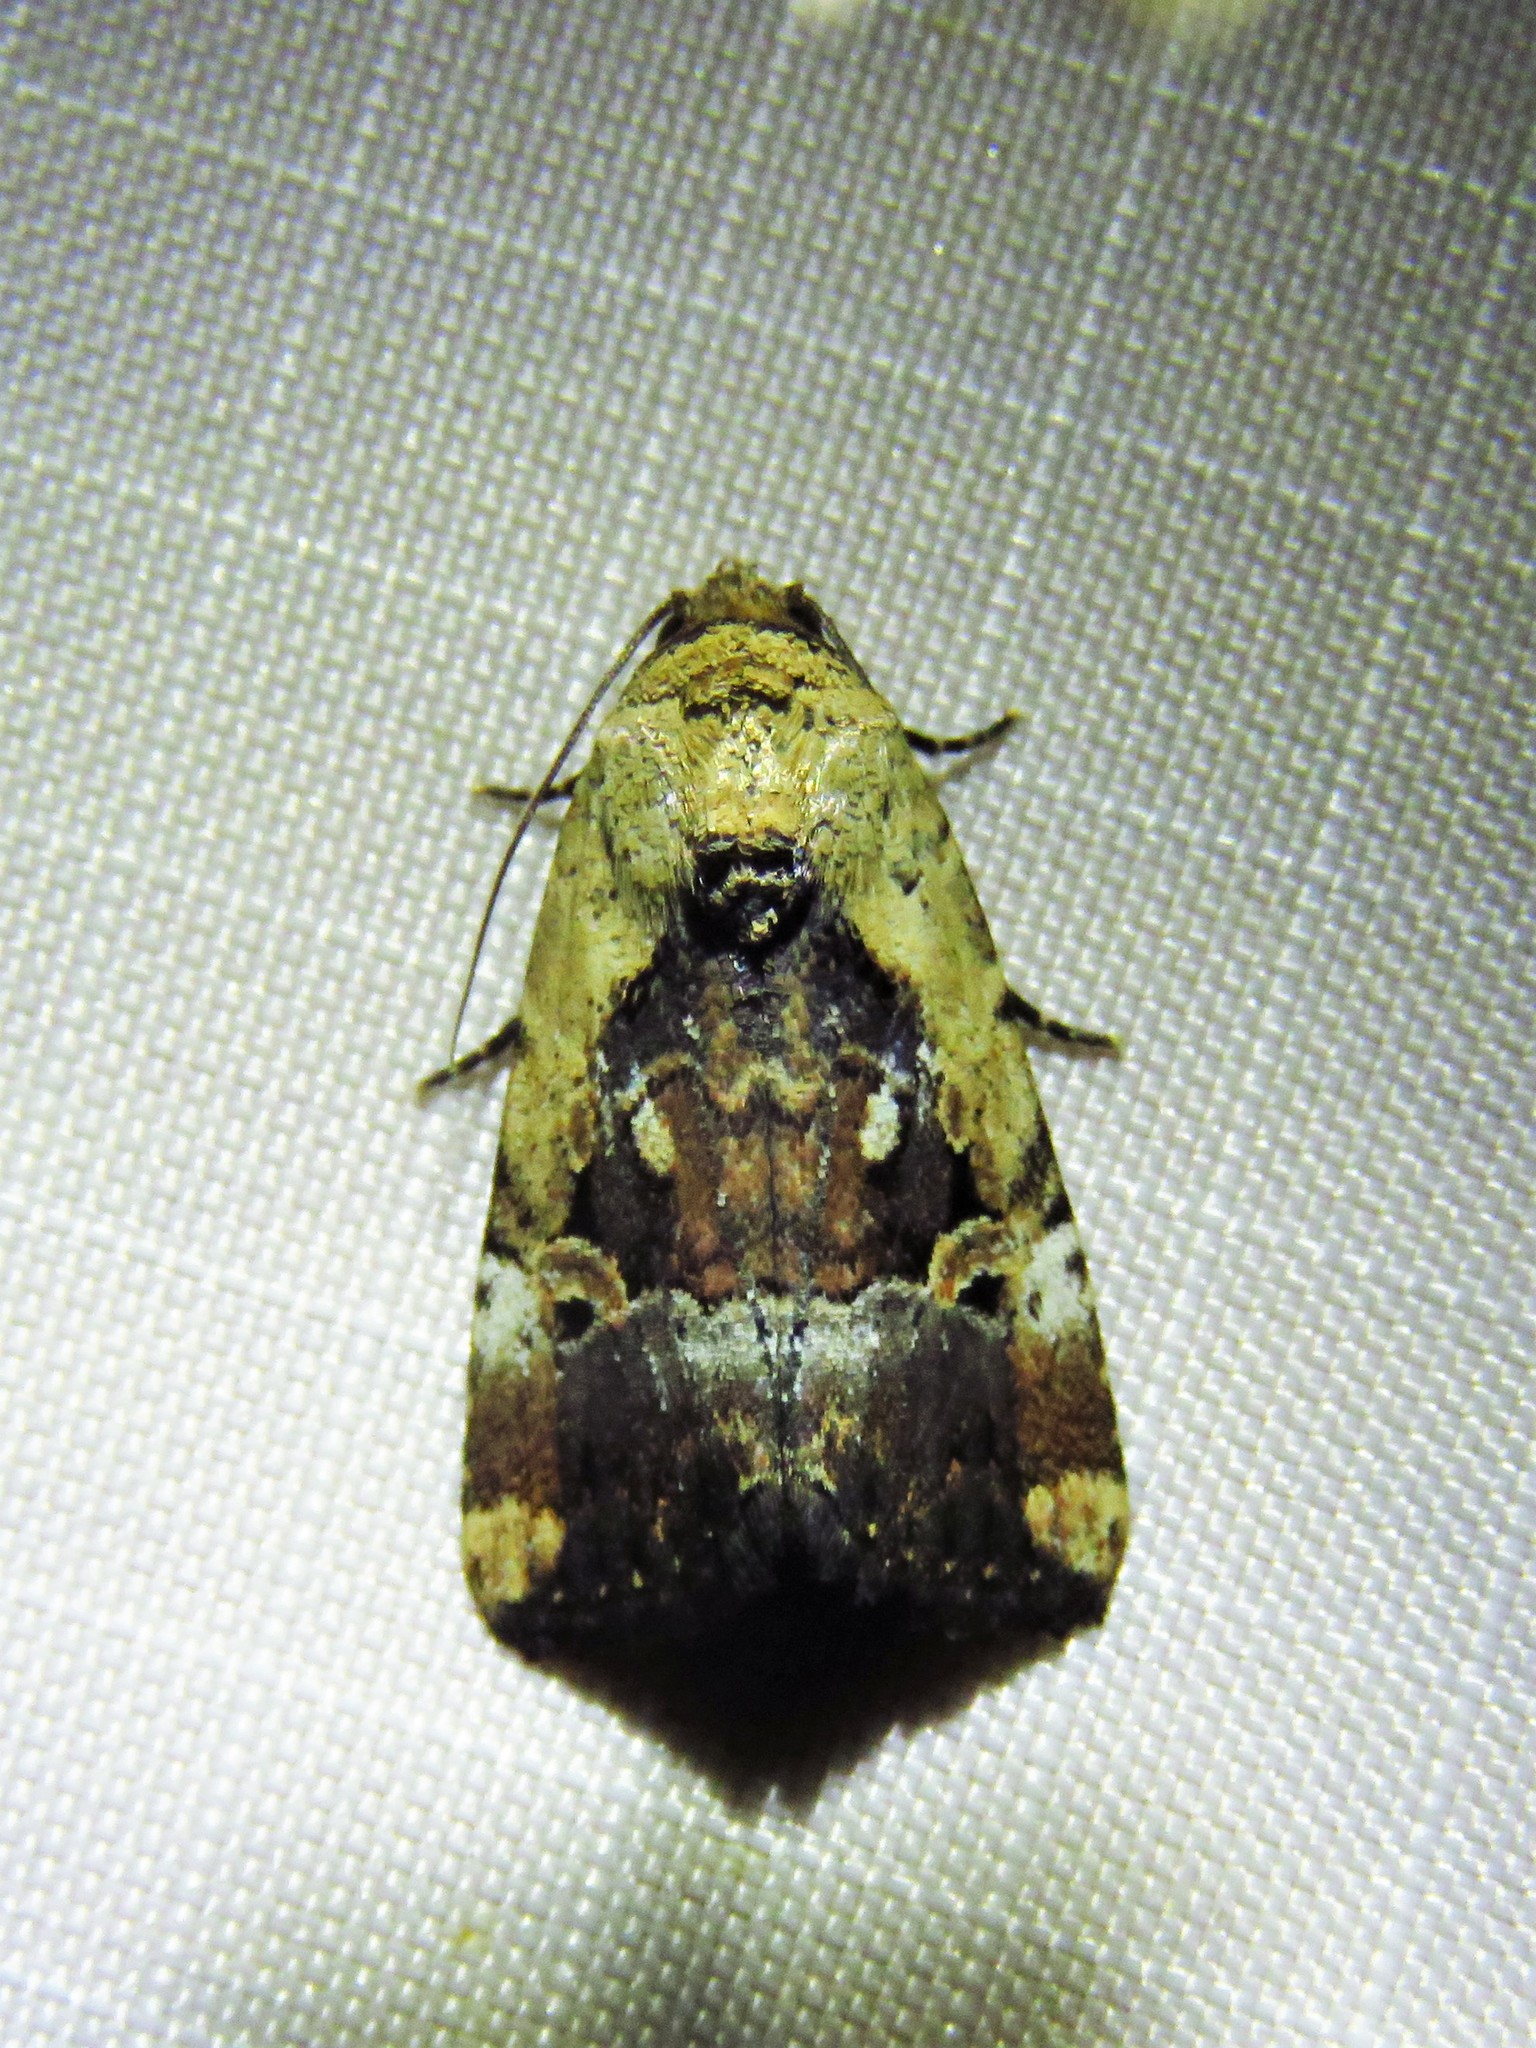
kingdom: Animalia
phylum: Arthropoda
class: Insecta
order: Lepidoptera
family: Noctuidae
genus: Elaphria
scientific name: Elaphria chalcedonia
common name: Chalcedony midget
